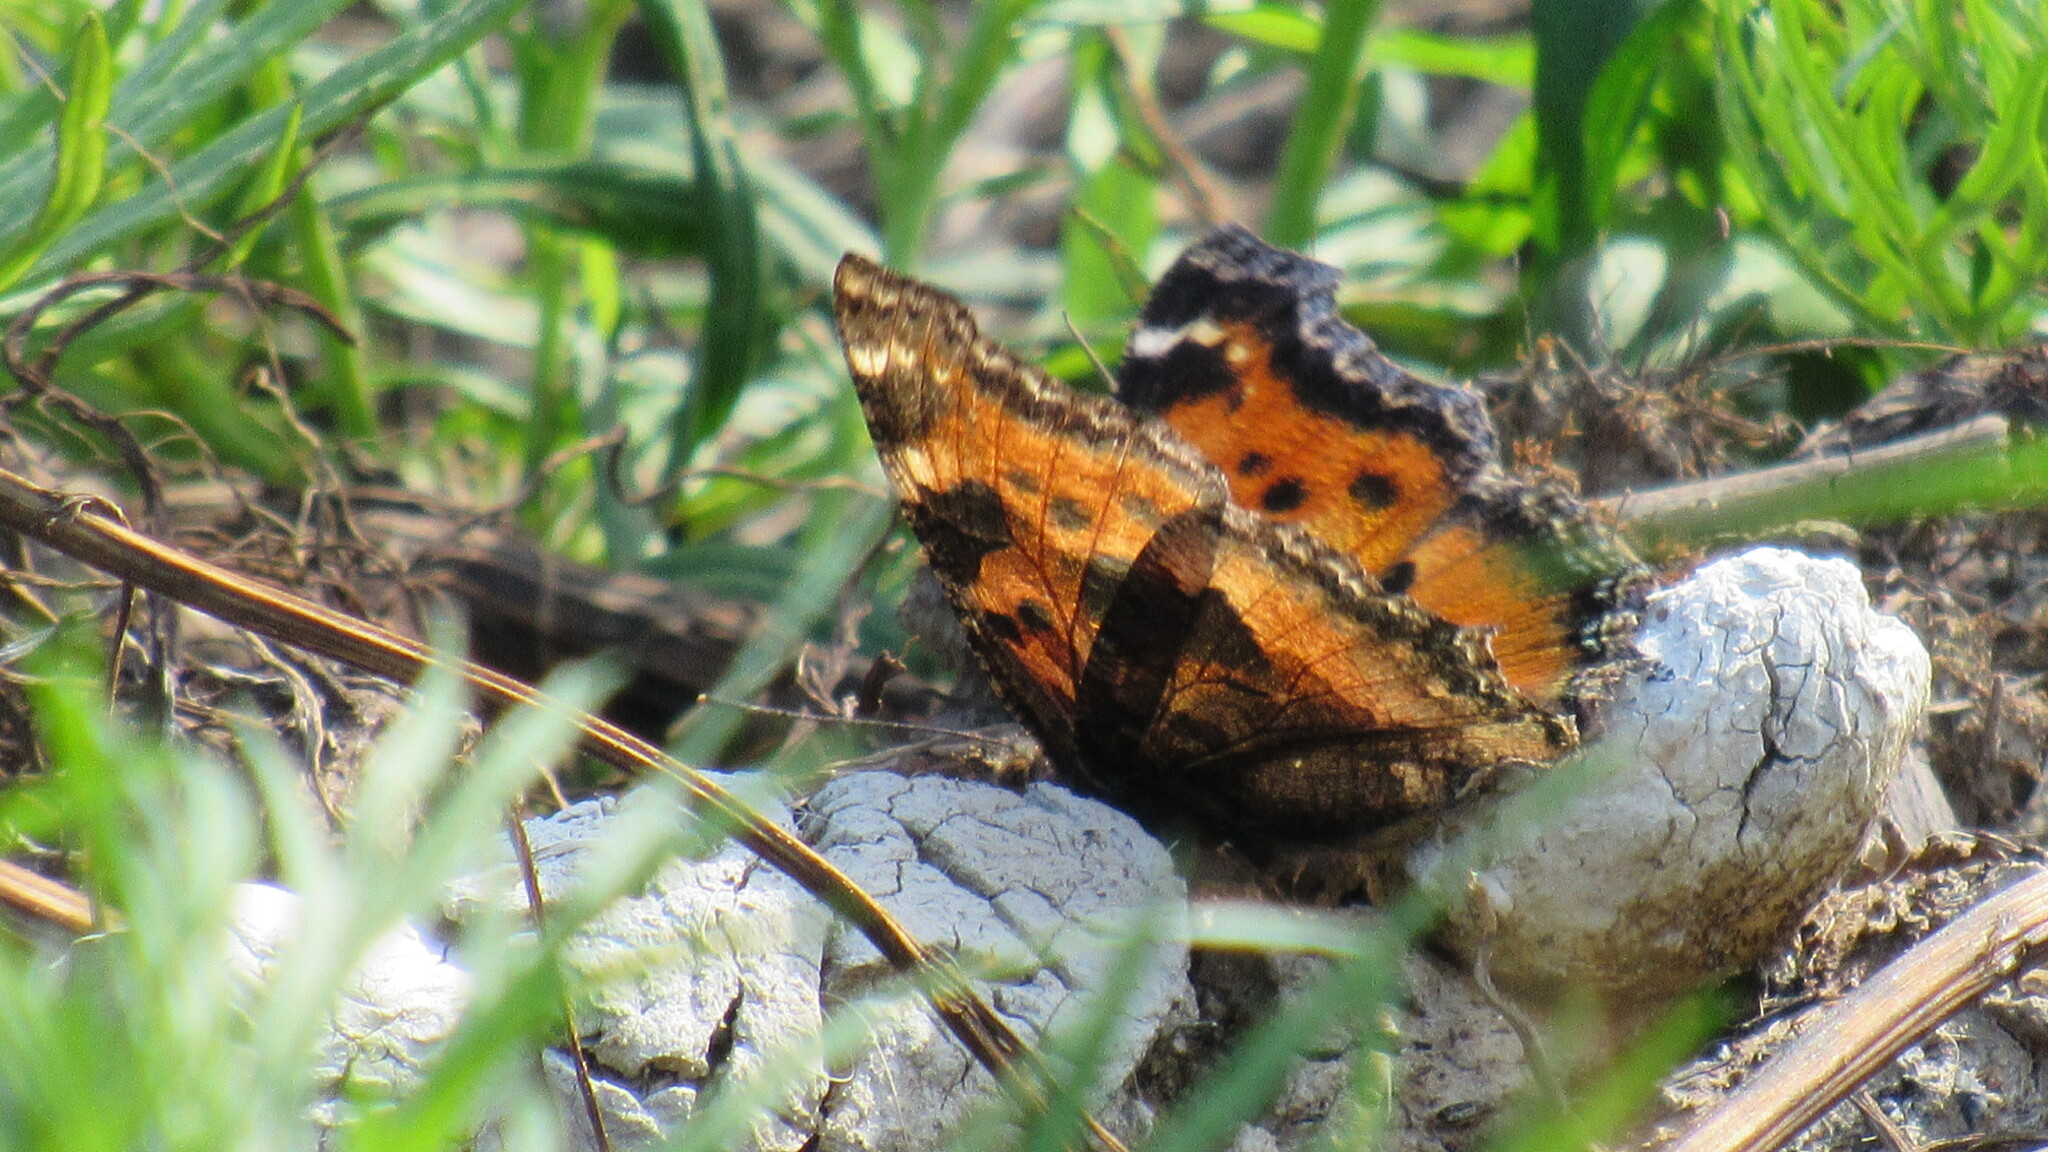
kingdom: Animalia
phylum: Arthropoda
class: Insecta
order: Lepidoptera
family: Nymphalidae
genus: Nymphalis
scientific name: Nymphalis xanthomelas
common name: Scarce tortoiseshell
